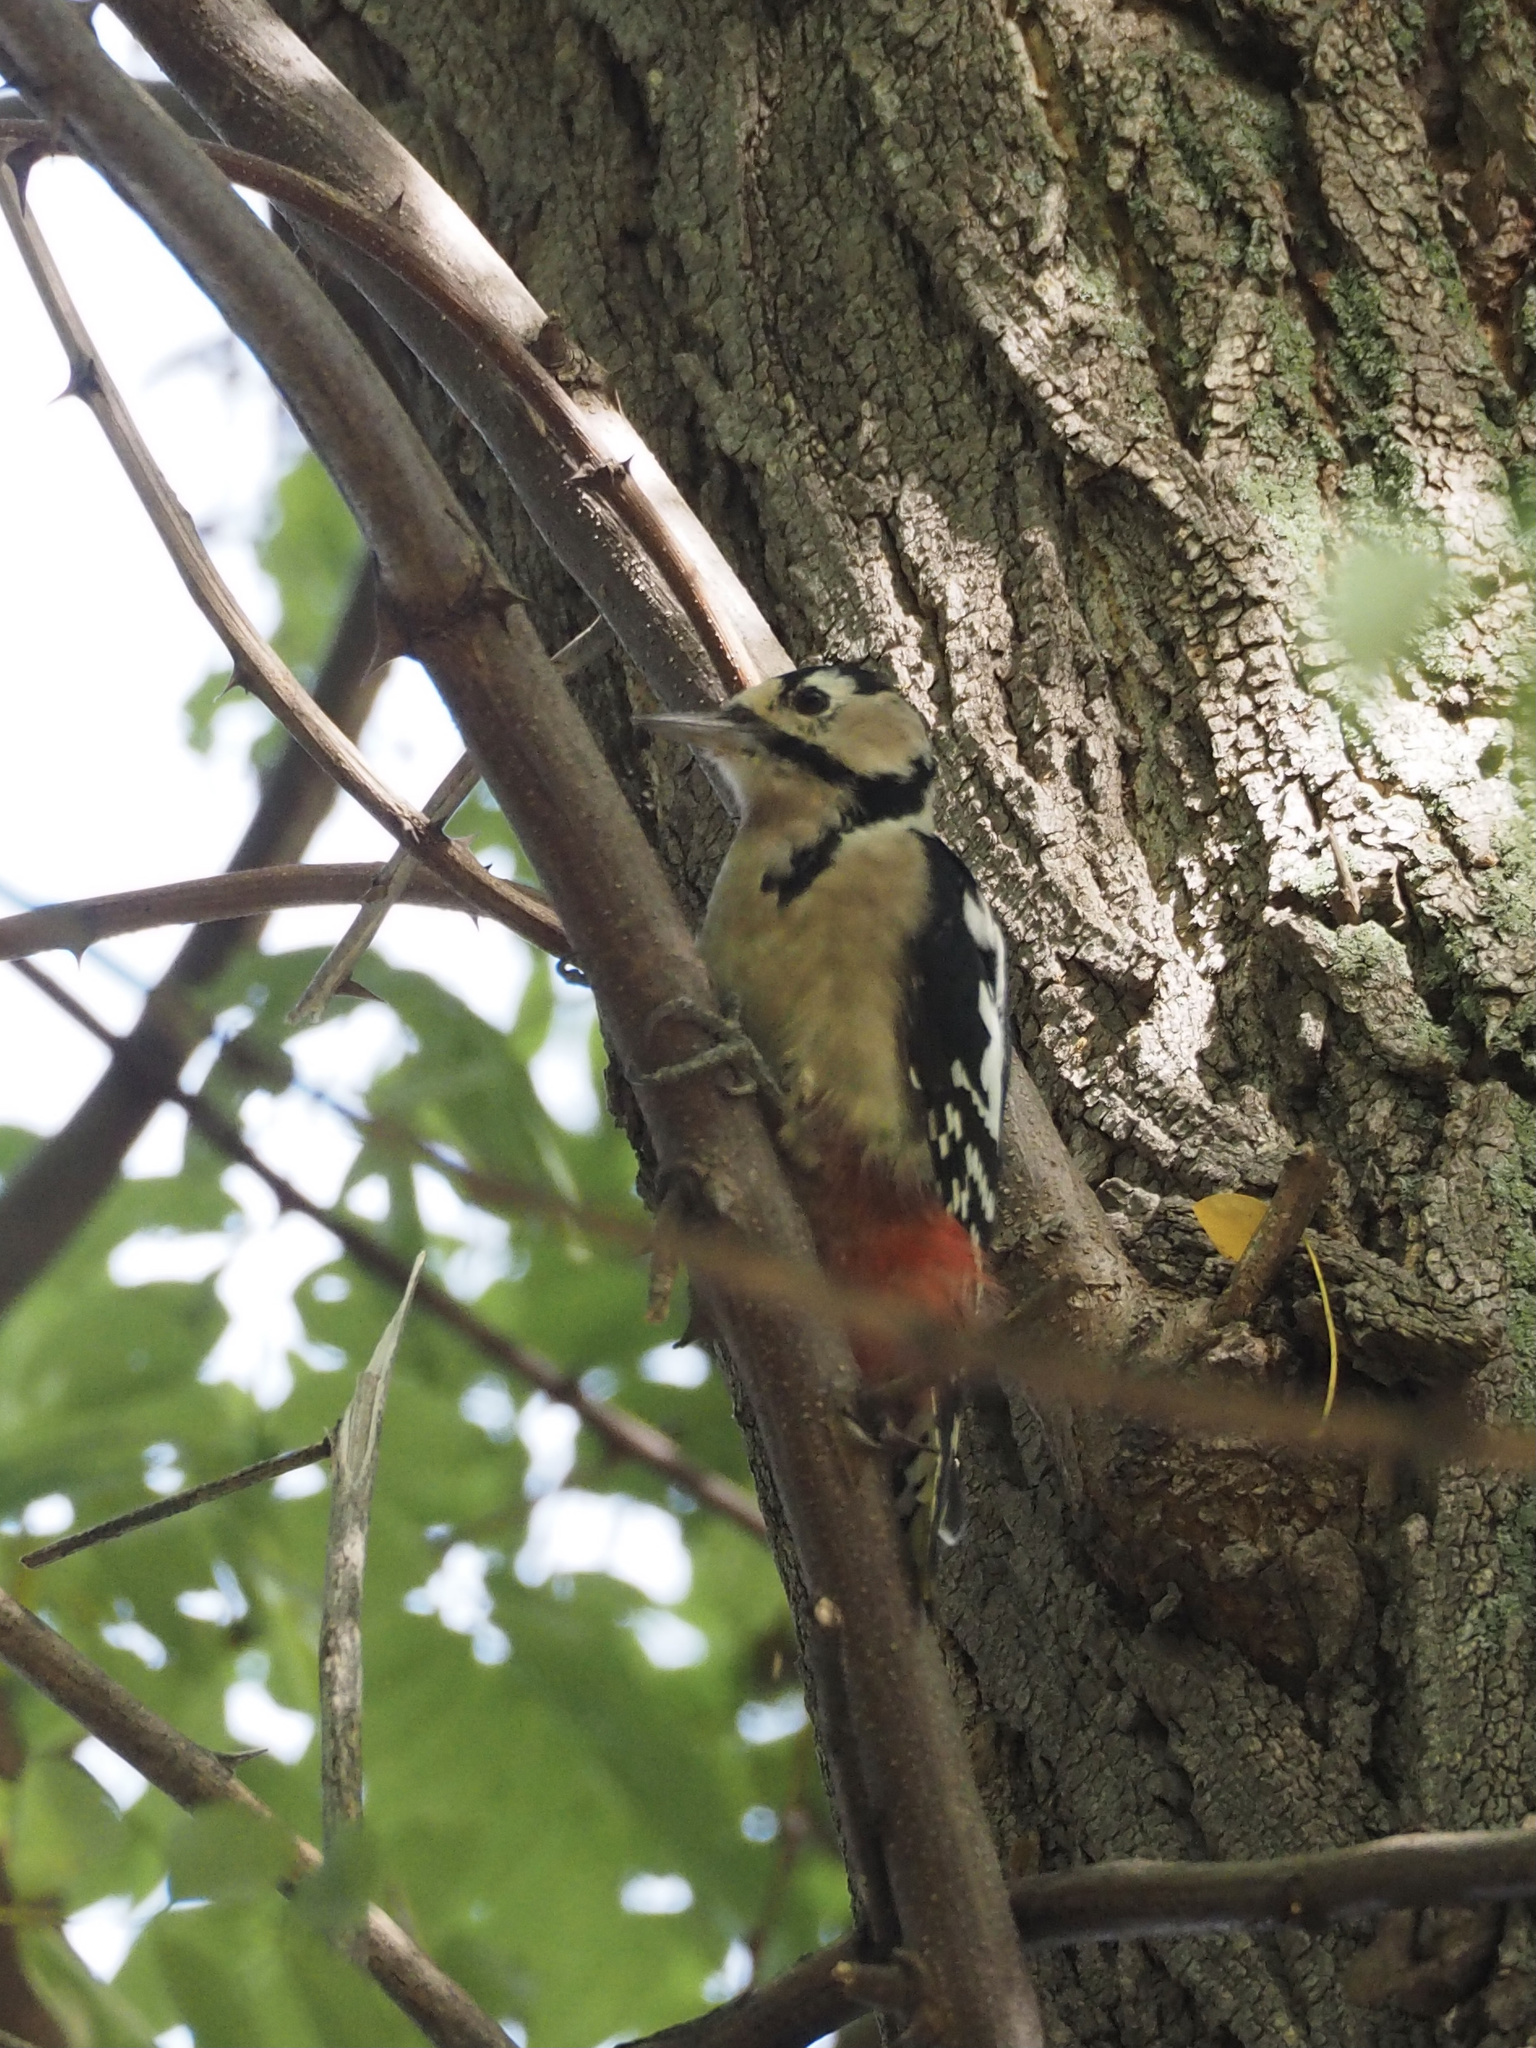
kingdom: Animalia
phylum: Chordata
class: Aves
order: Piciformes
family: Picidae
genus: Dendrocopos
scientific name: Dendrocopos major
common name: Great spotted woodpecker
